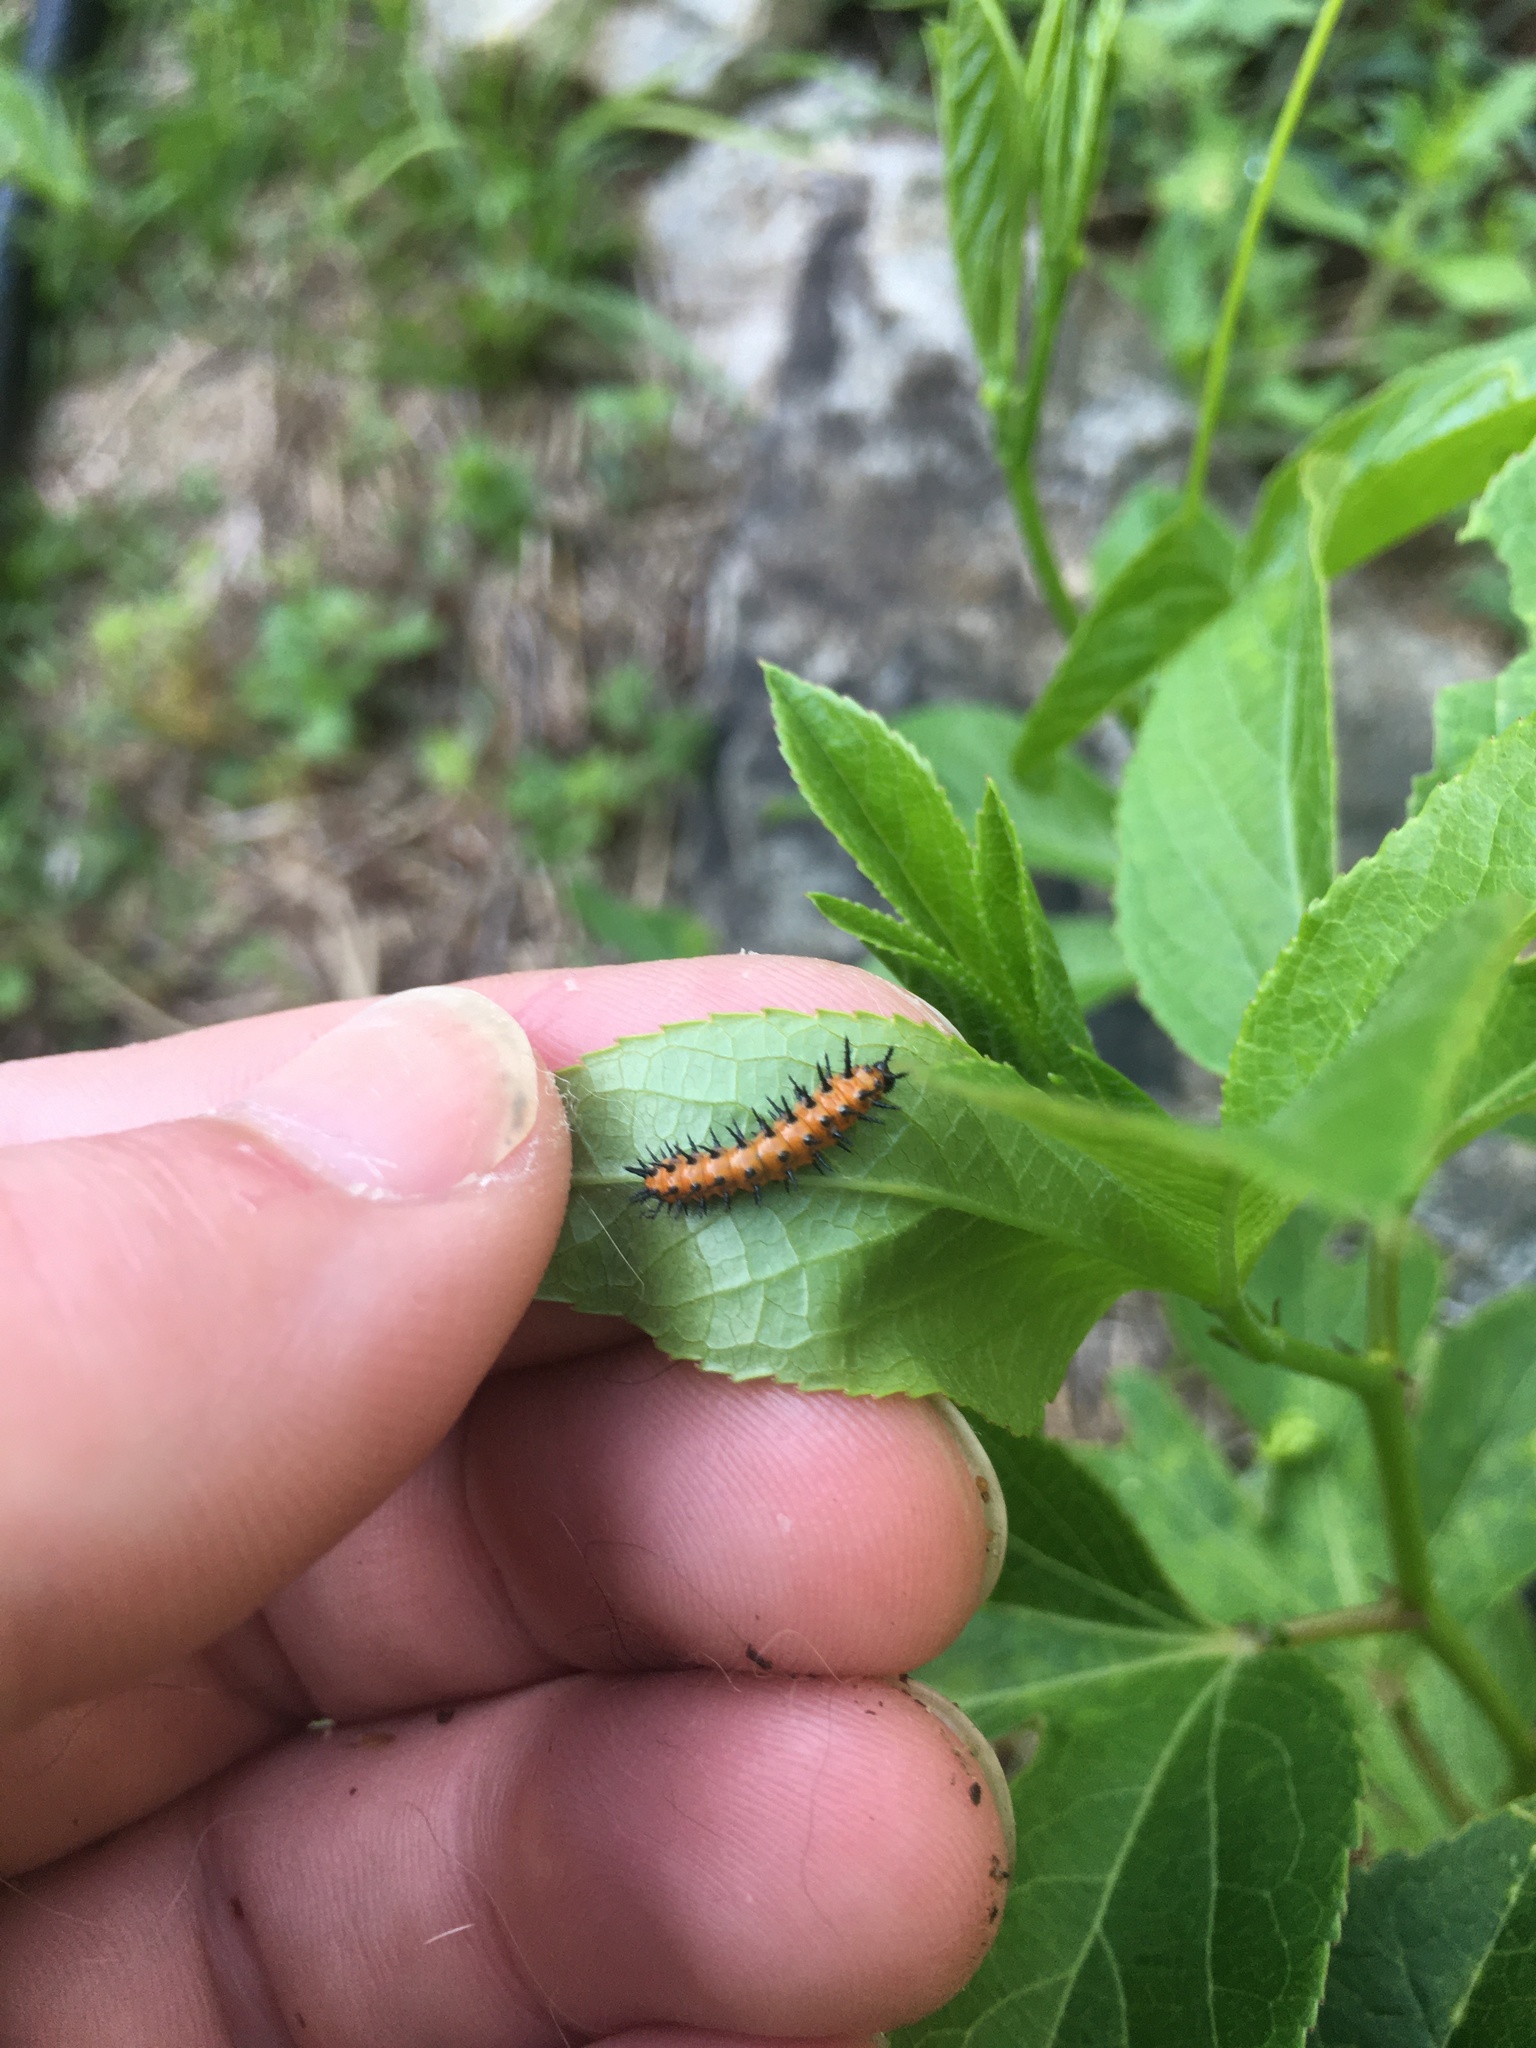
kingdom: Animalia
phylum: Arthropoda
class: Insecta
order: Lepidoptera
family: Nymphalidae
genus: Dione
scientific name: Dione vanillae
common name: Gulf fritillary
